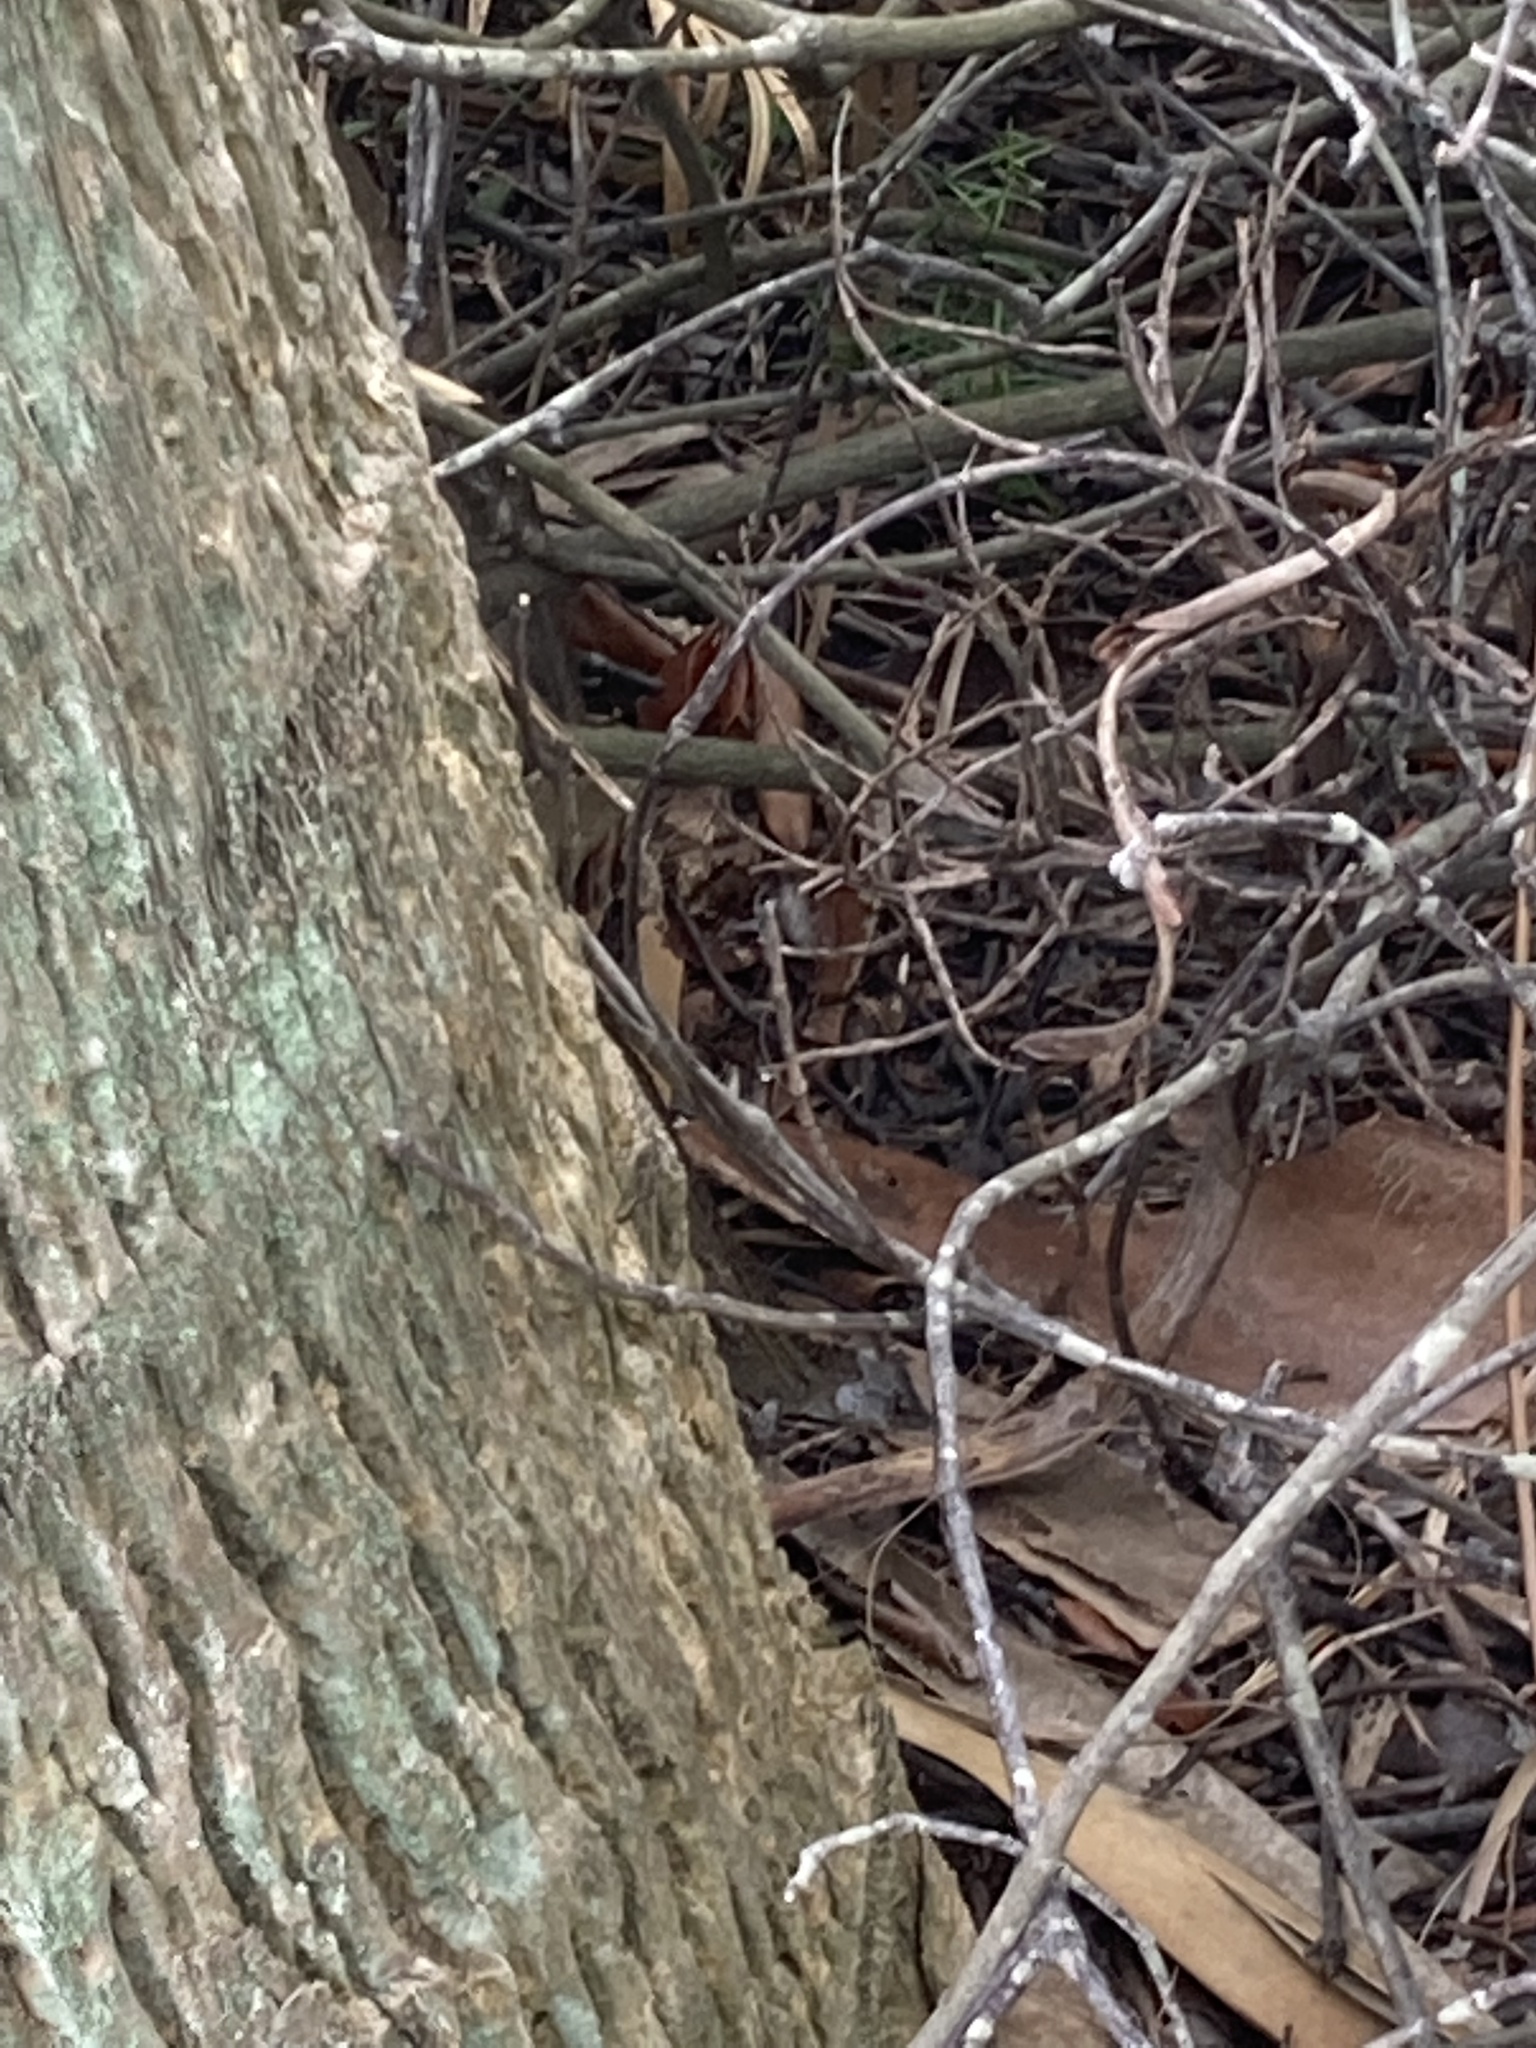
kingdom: Animalia
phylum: Chordata
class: Squamata
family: Dactyloidae
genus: Anolis
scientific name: Anolis sagrei
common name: Brown anole
